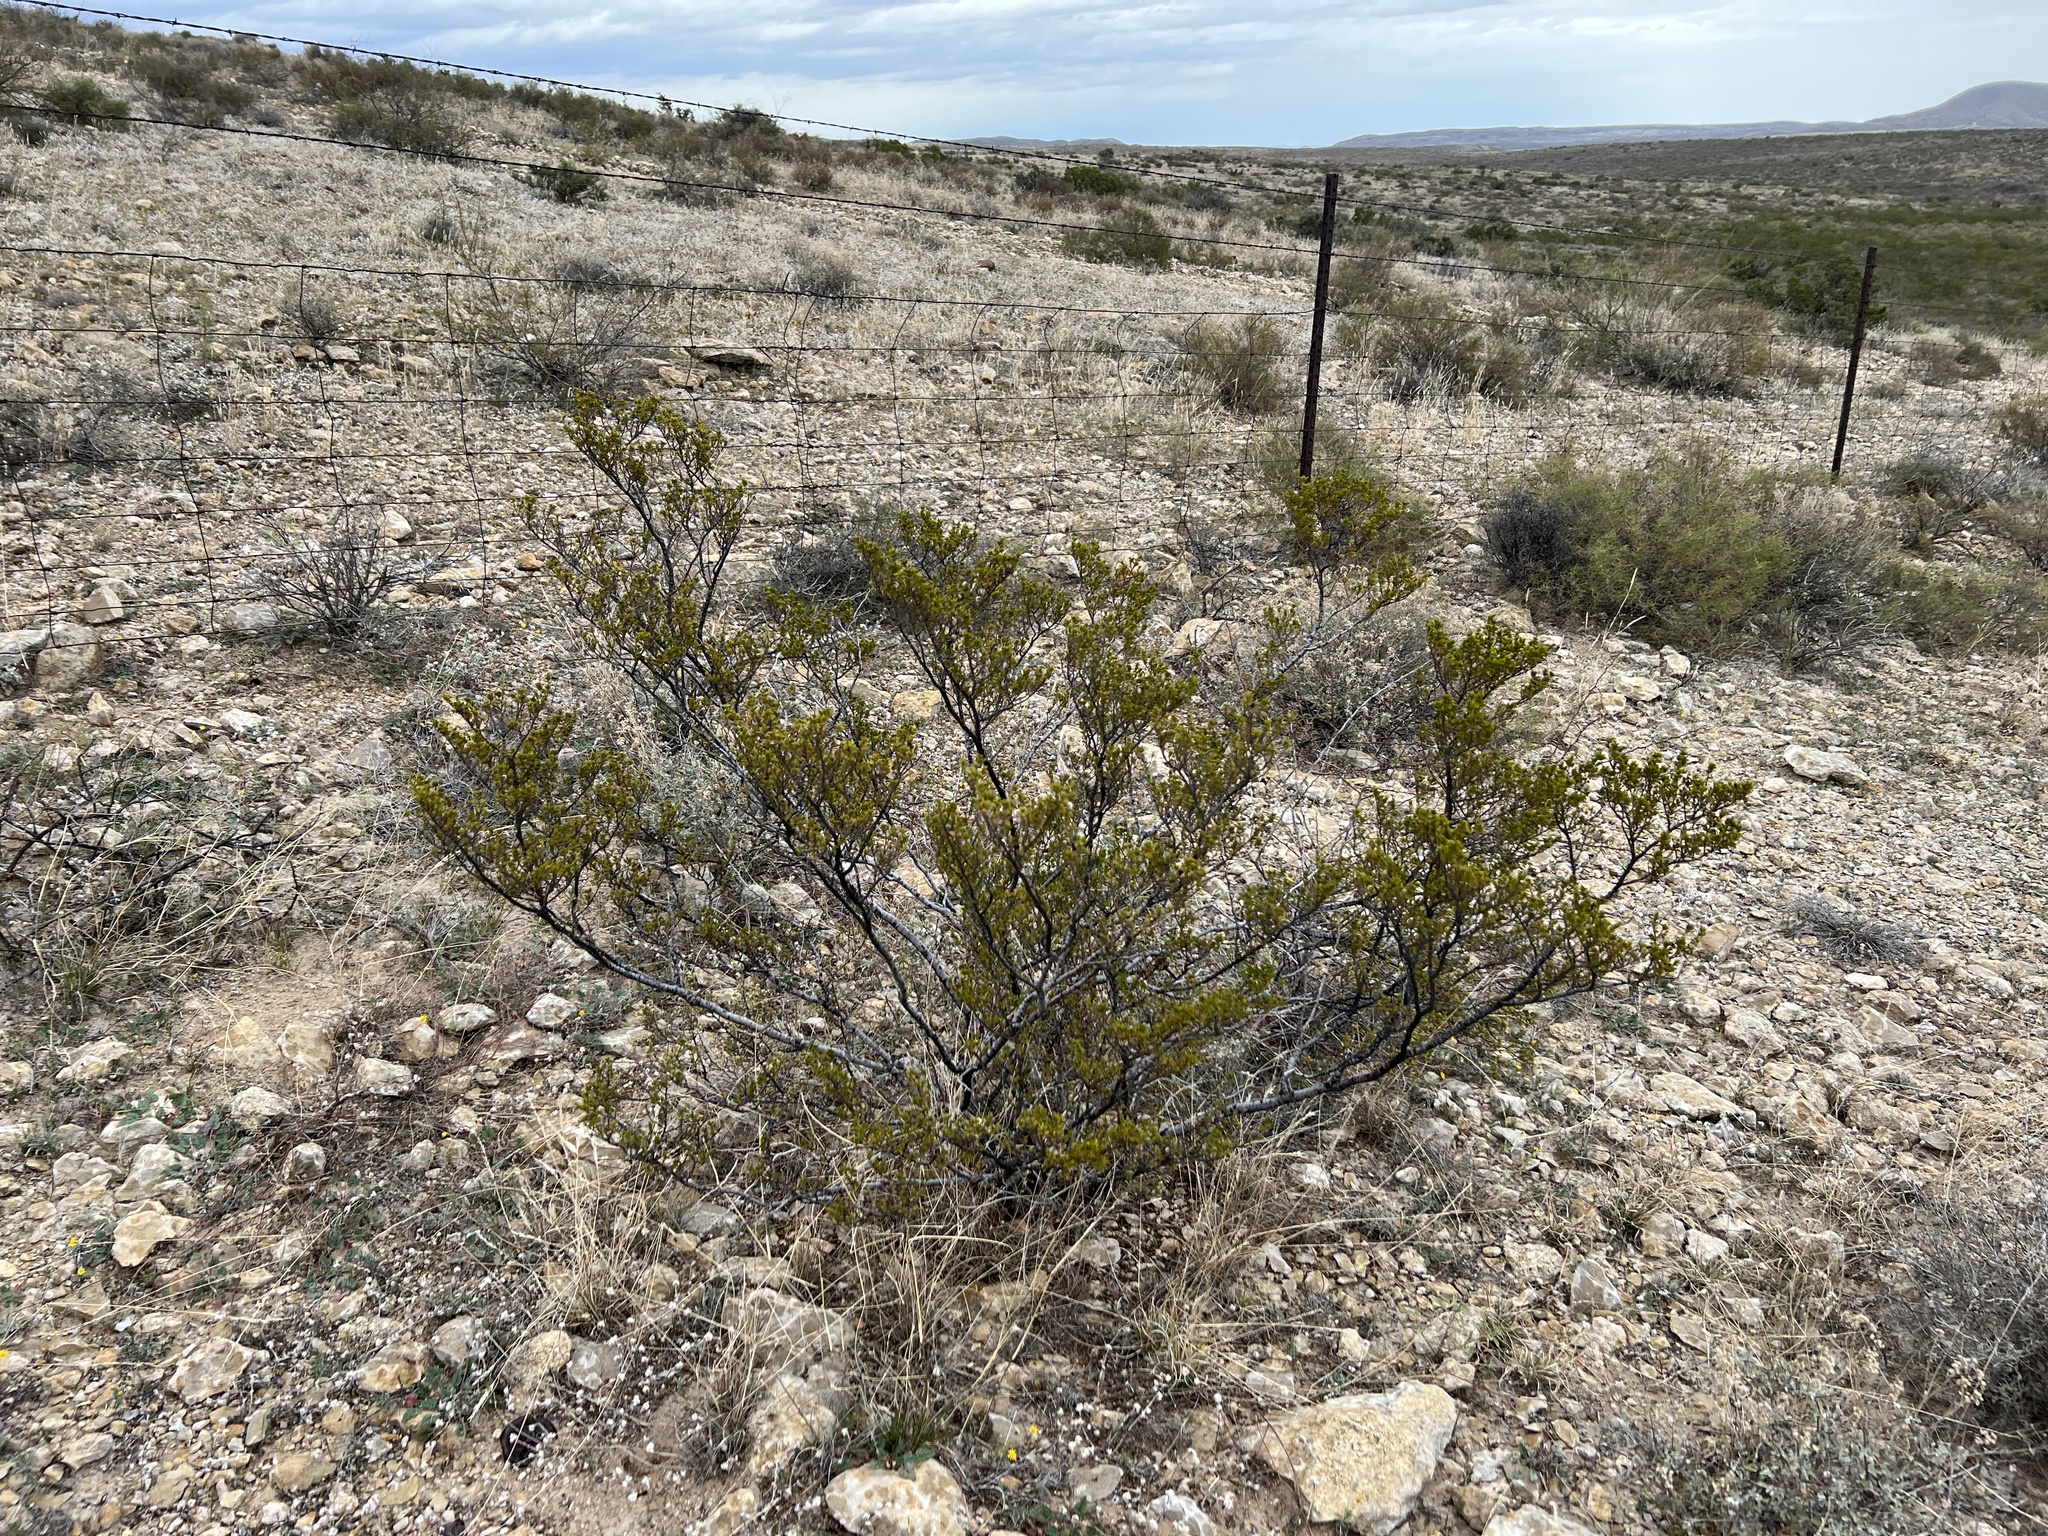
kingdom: Plantae
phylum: Tracheophyta
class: Magnoliopsida
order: Zygophyllales
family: Zygophyllaceae
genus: Larrea
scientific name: Larrea tridentata
